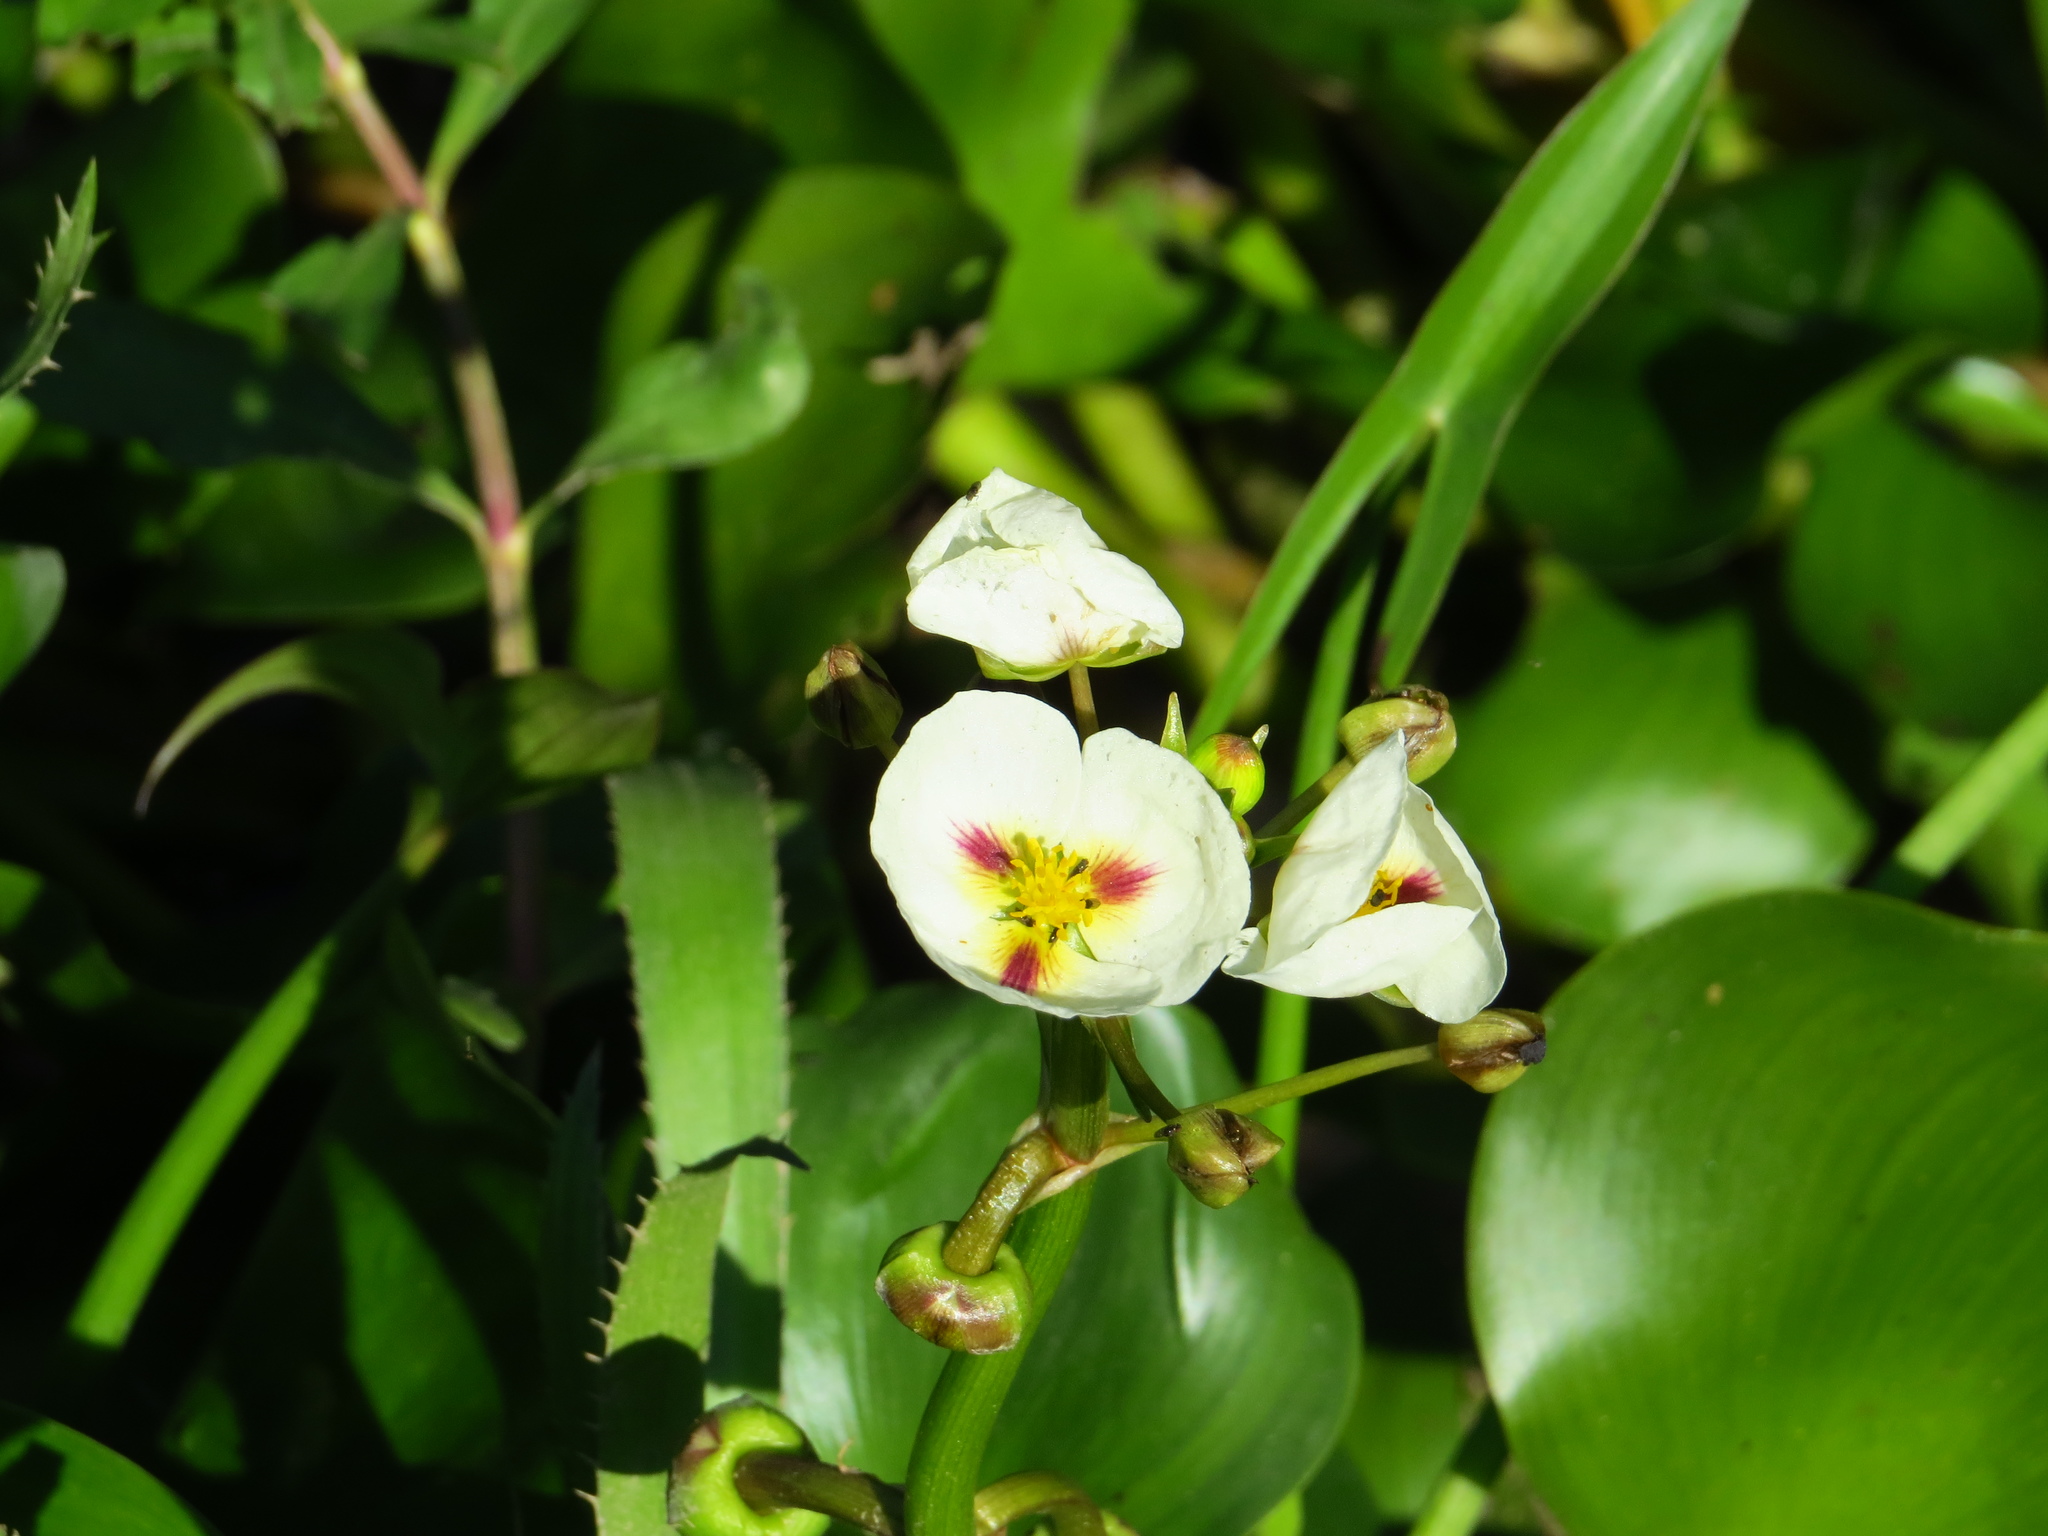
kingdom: Plantae
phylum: Tracheophyta
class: Liliopsida
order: Alismatales
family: Alismataceae
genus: Sagittaria
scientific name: Sagittaria montevidensis
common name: Giant arrowhead
